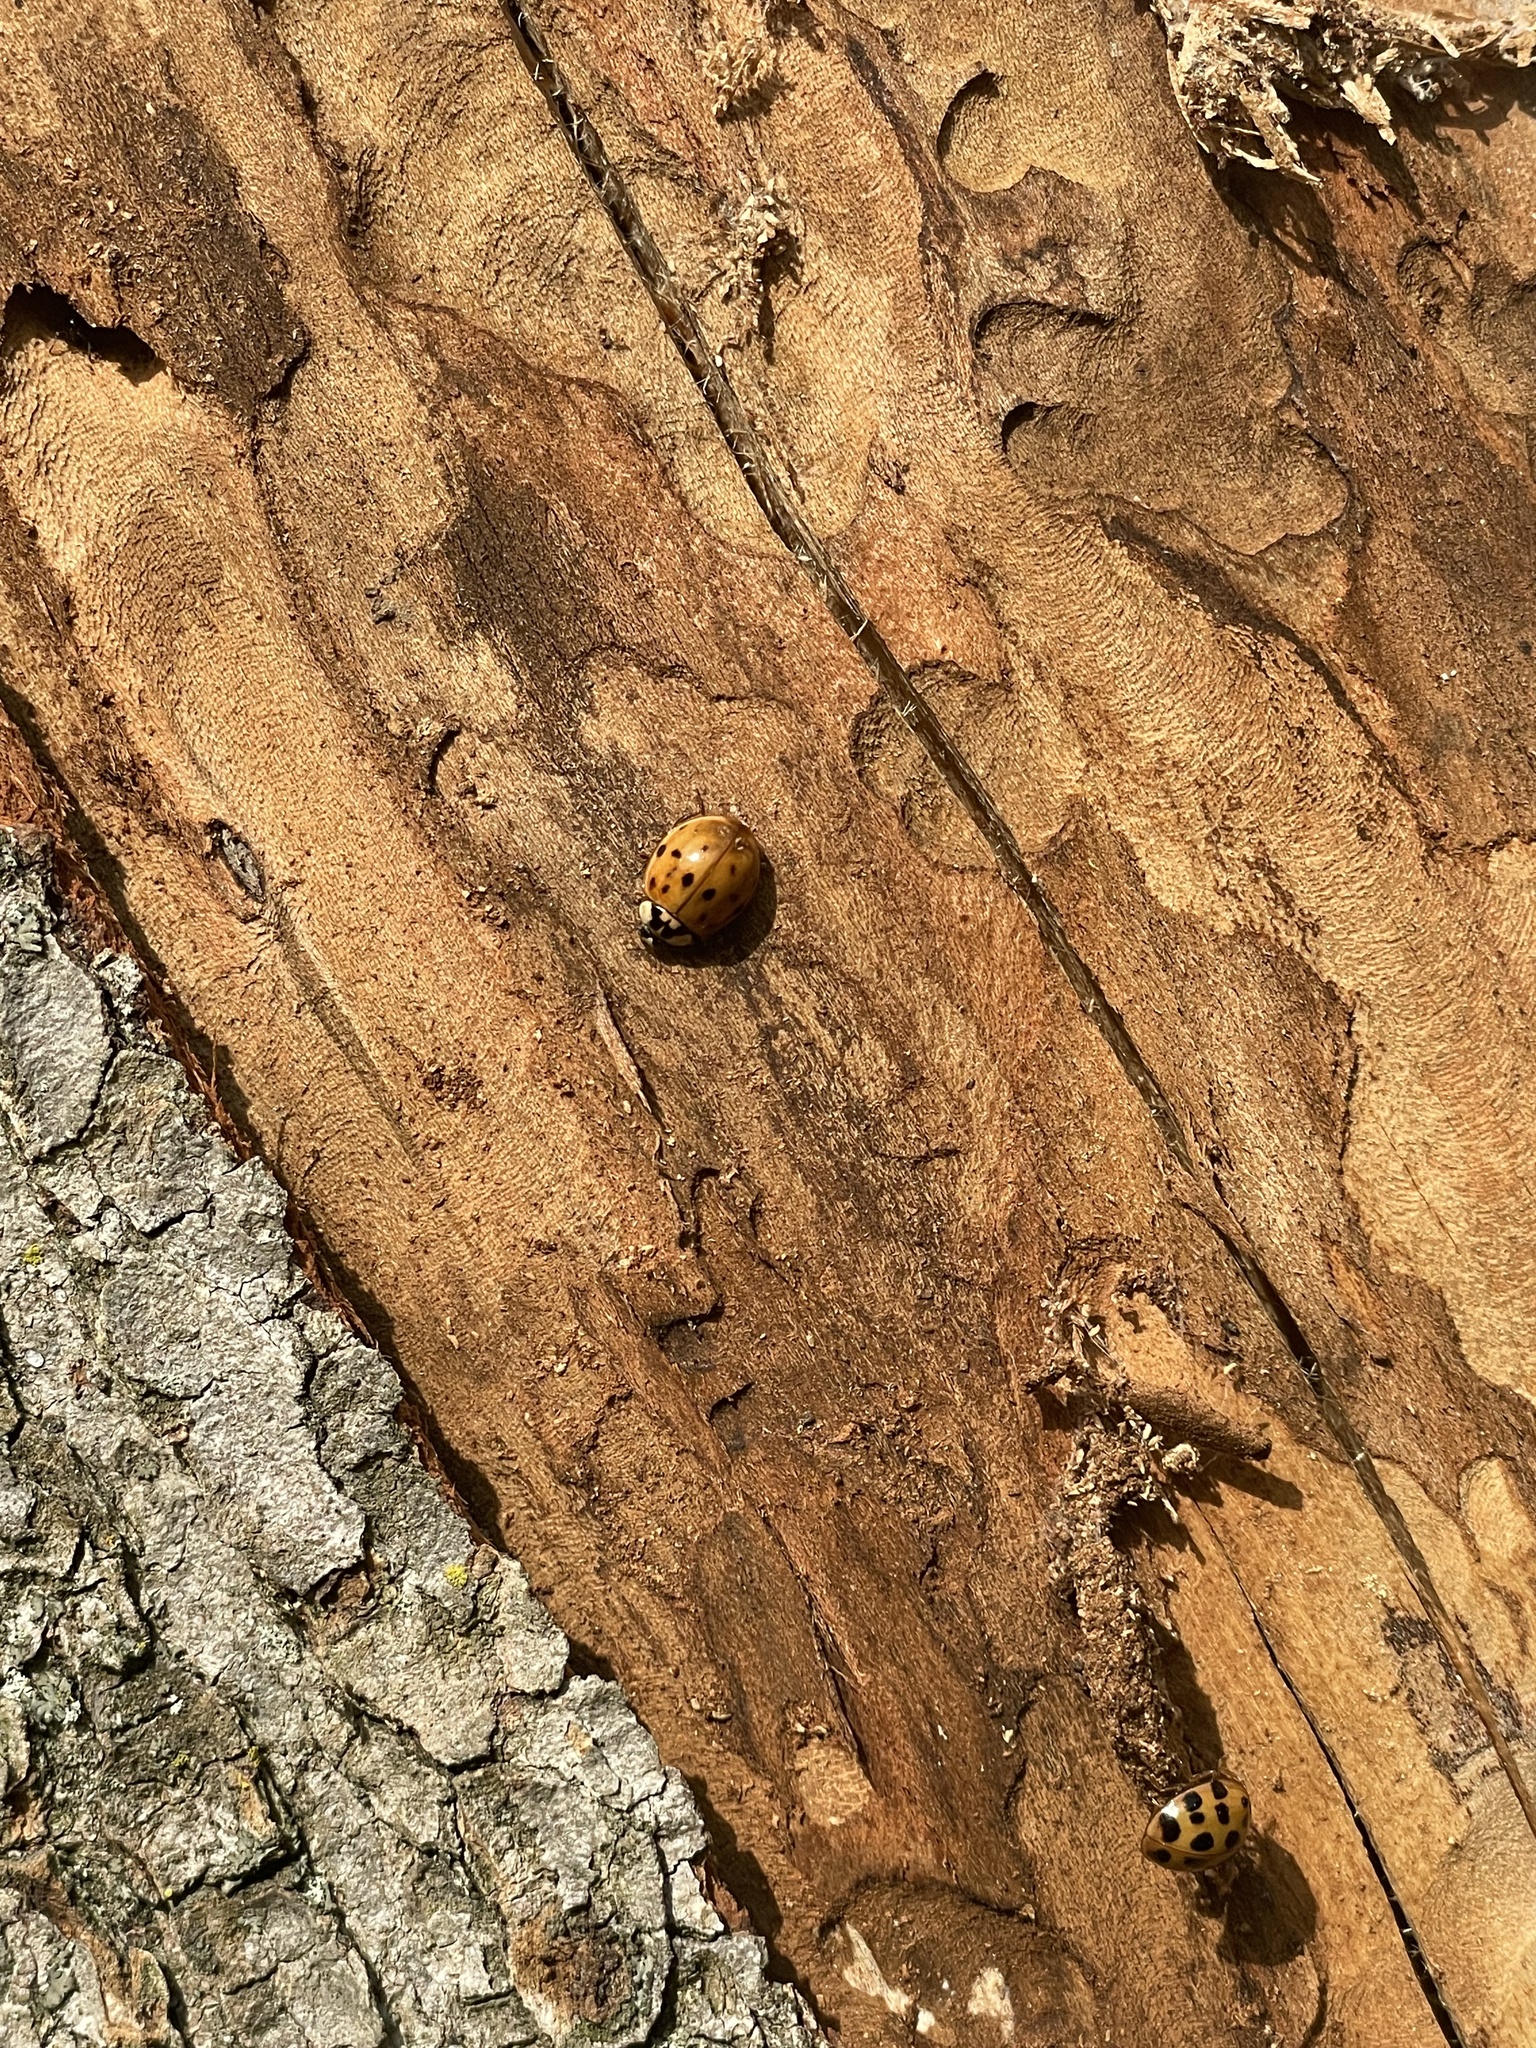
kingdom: Animalia
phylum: Arthropoda
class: Insecta
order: Coleoptera
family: Coccinellidae
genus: Harmonia
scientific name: Harmonia axyridis
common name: Harlequin ladybird
